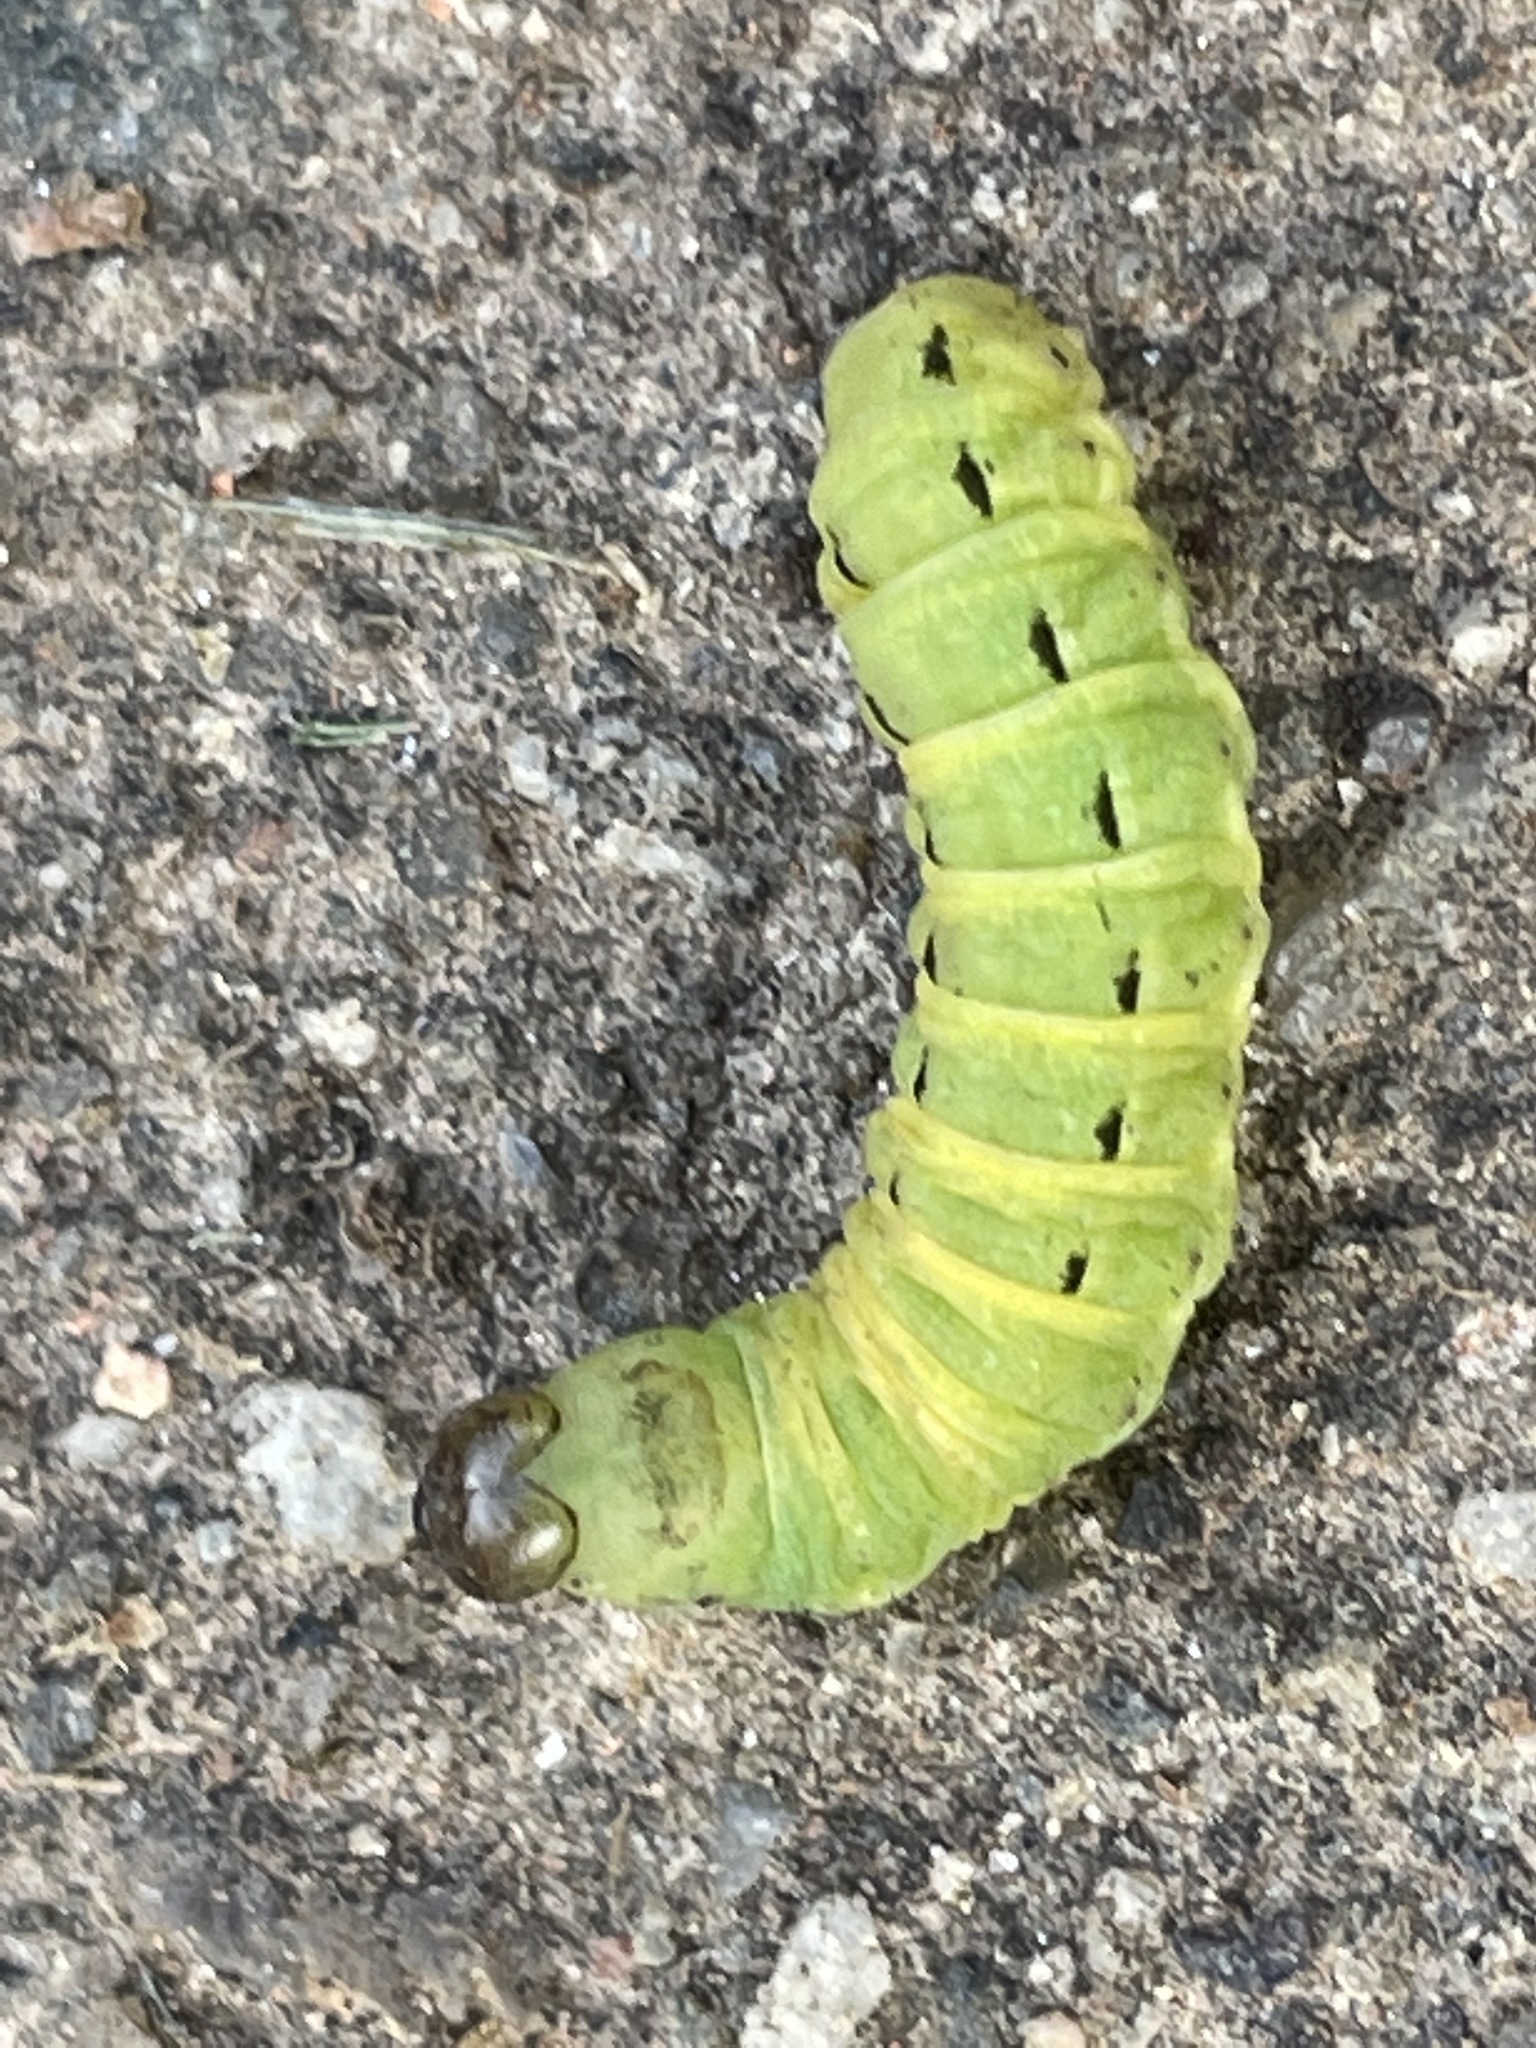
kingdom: Animalia
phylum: Arthropoda
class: Insecta
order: Lepidoptera
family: Noctuidae
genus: Noctua
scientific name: Noctua pronuba
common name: Large yellow underwing
